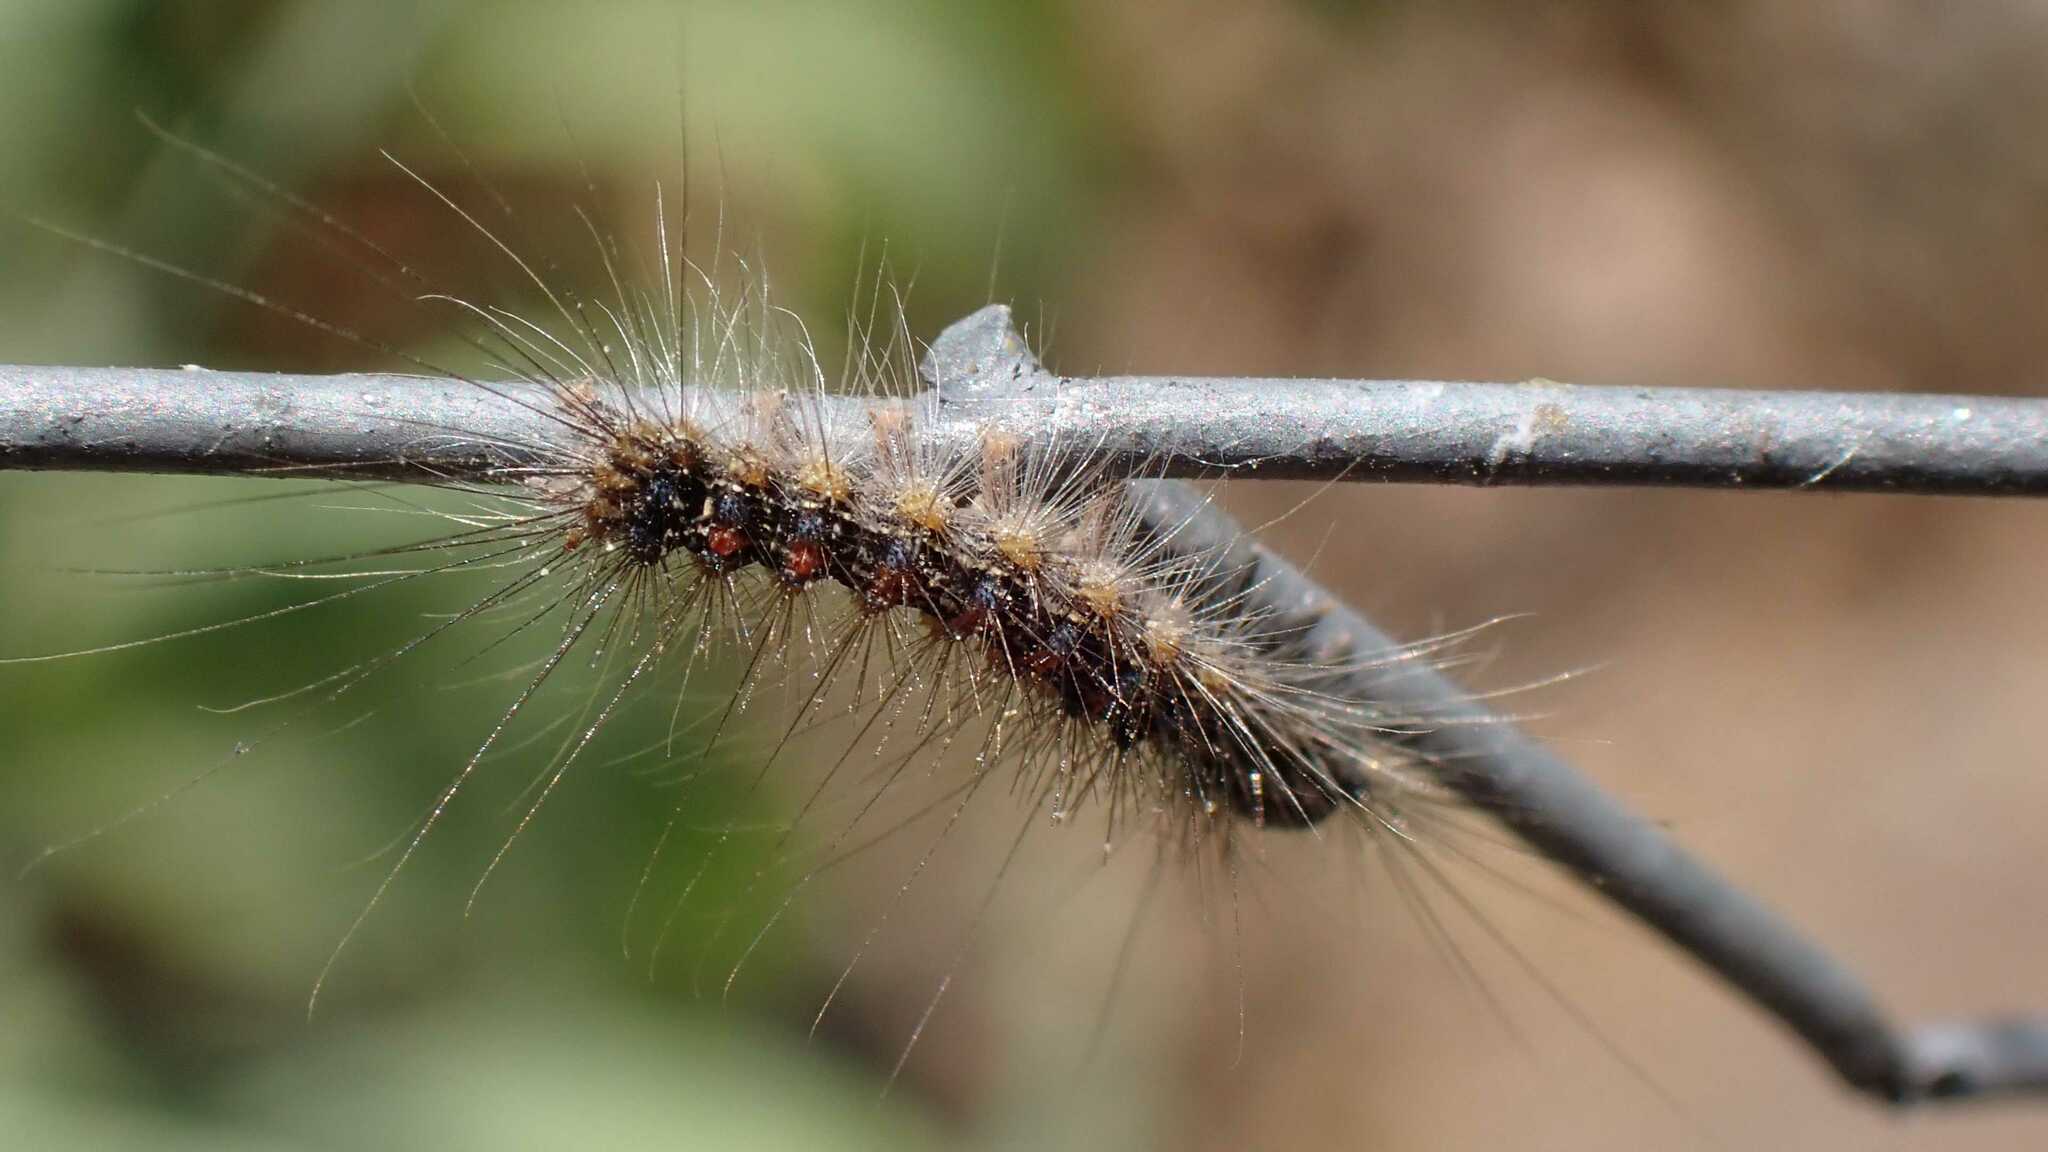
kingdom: Animalia
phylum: Arthropoda
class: Insecta
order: Lepidoptera
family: Erebidae
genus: Lymantria
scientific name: Lymantria dispar
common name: Gypsy moth
